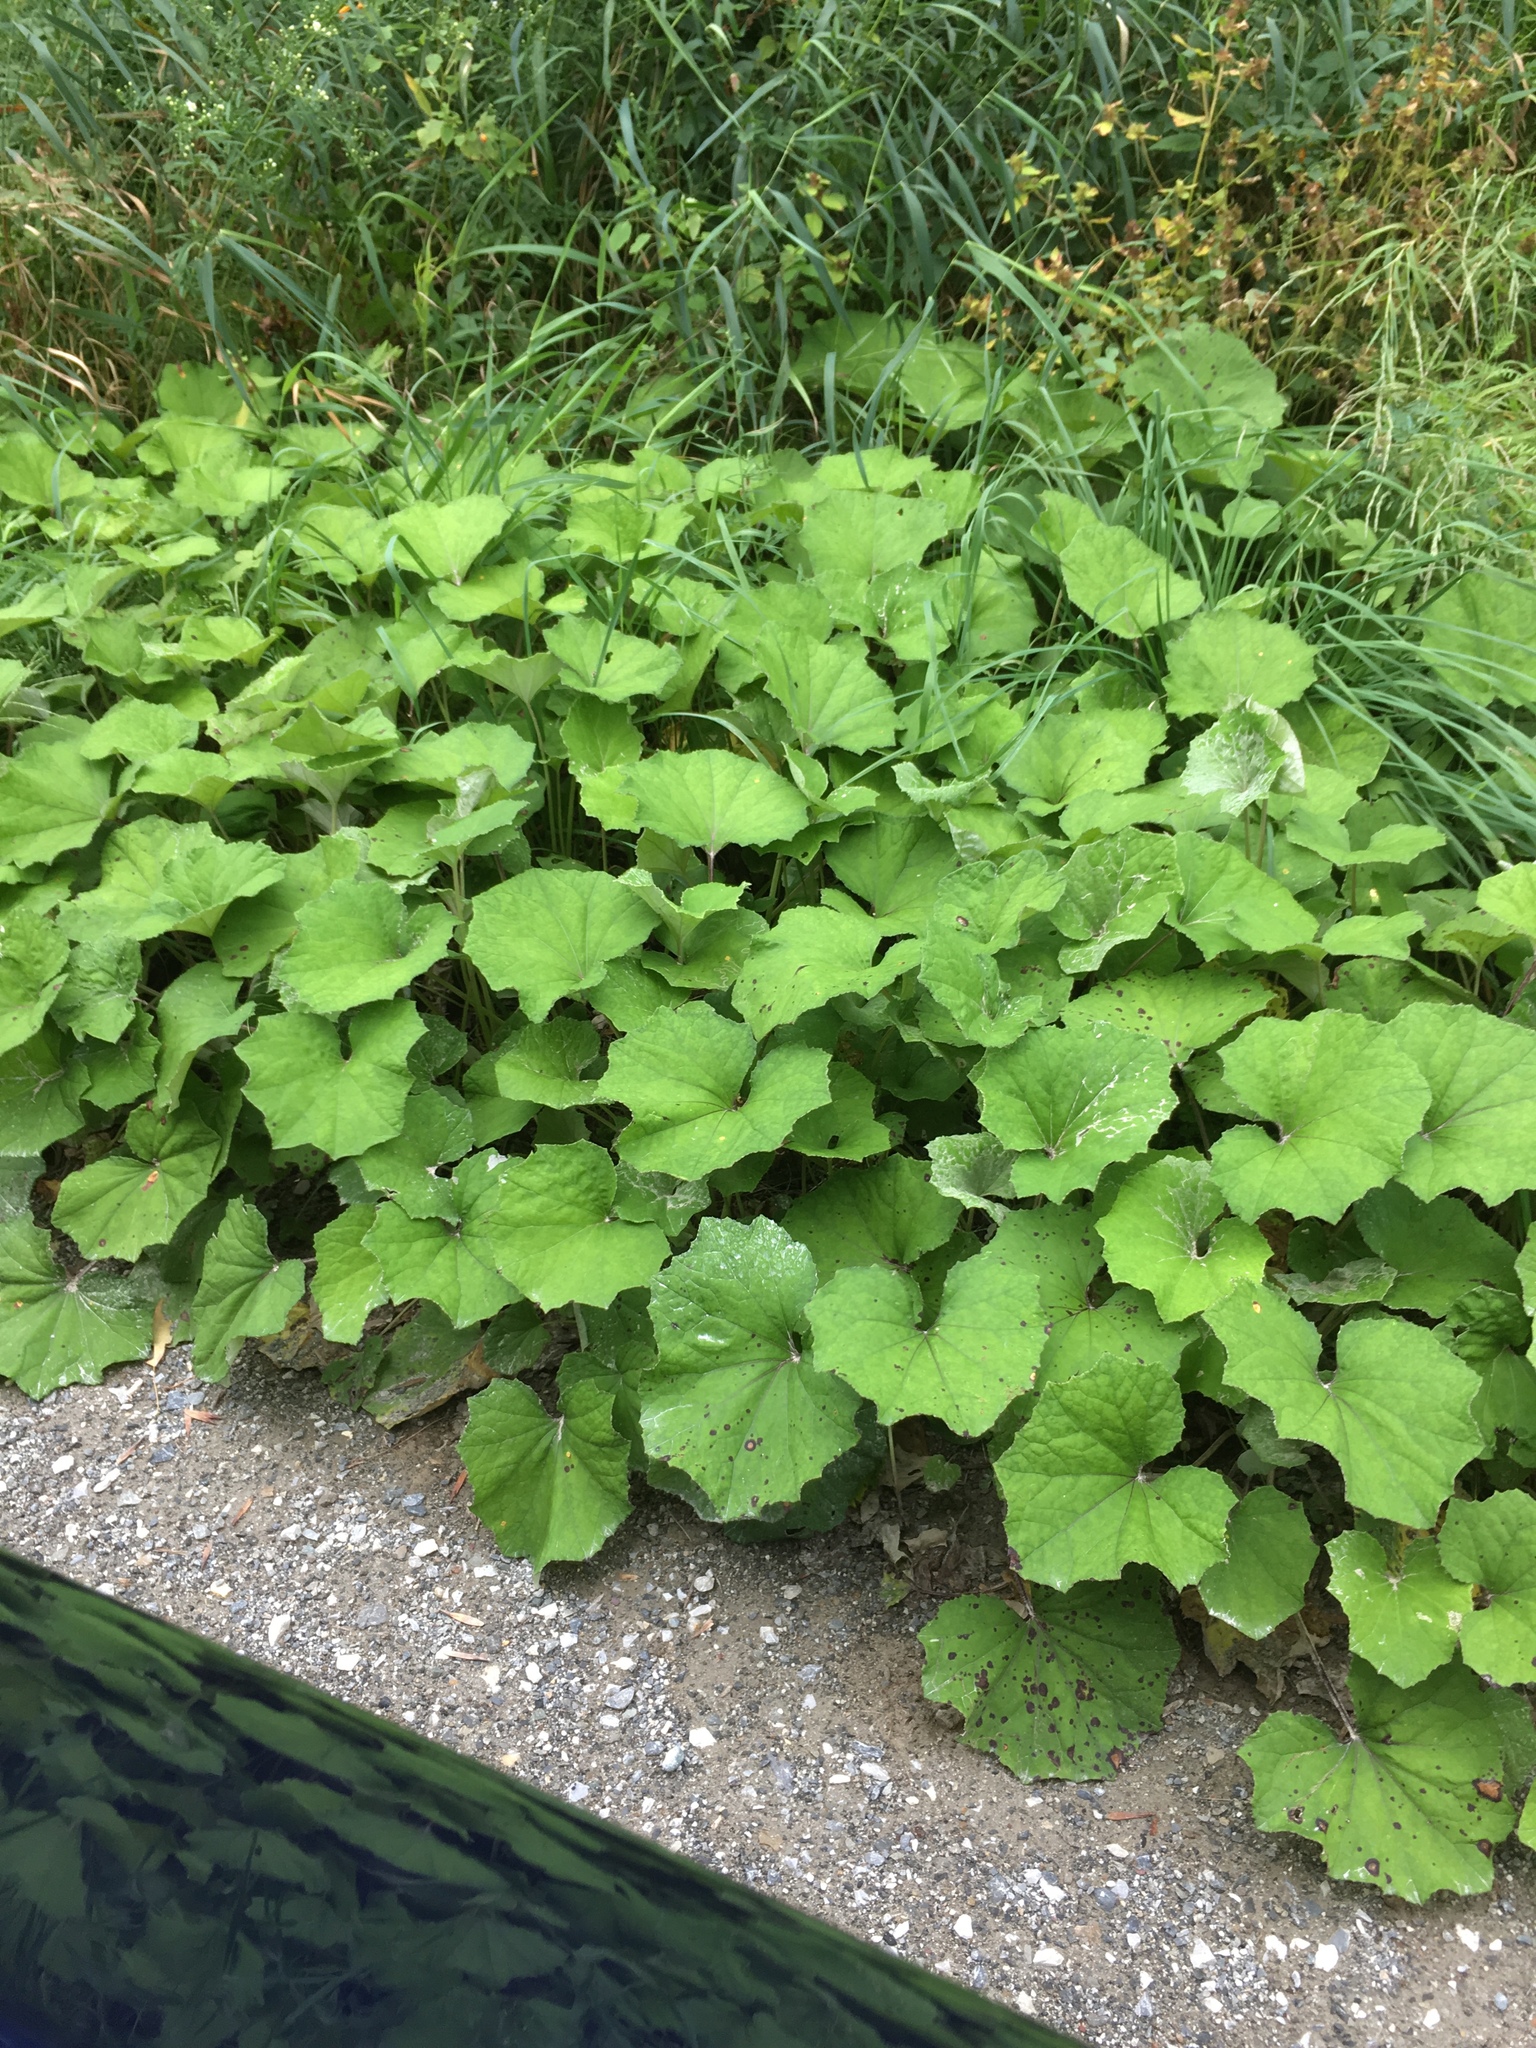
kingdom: Plantae
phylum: Tracheophyta
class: Magnoliopsida
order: Asterales
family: Asteraceae
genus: Tussilago
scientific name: Tussilago farfara
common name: Coltsfoot
